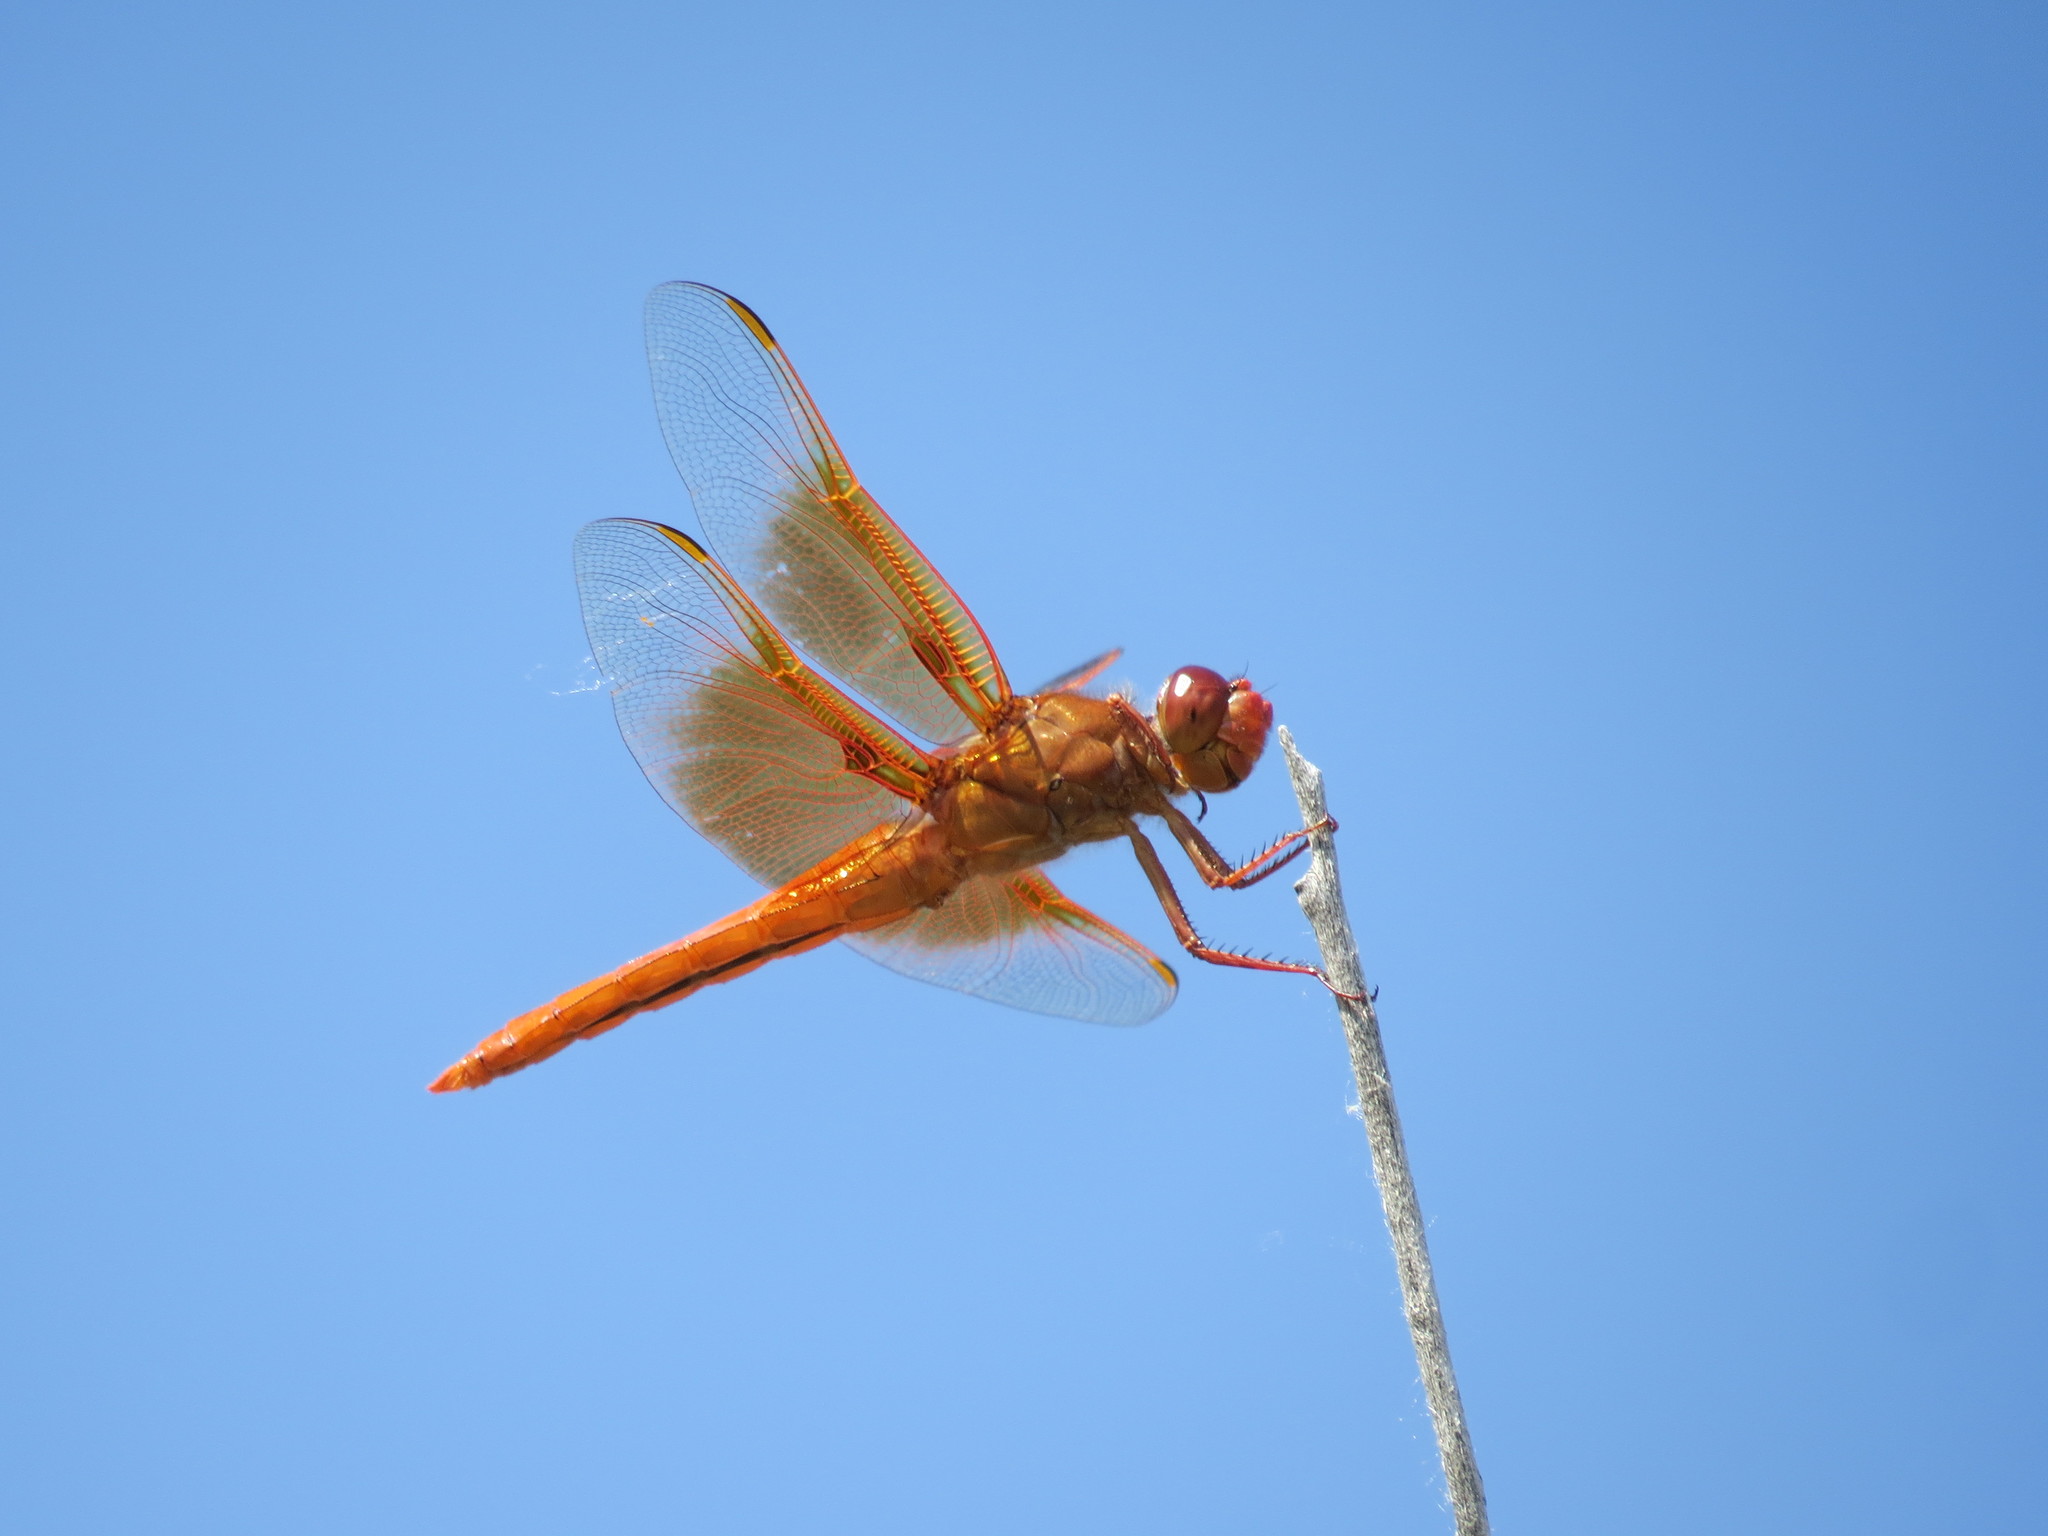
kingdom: Animalia
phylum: Arthropoda
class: Insecta
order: Odonata
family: Libellulidae
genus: Libellula
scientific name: Libellula saturata
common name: Flame skimmer
